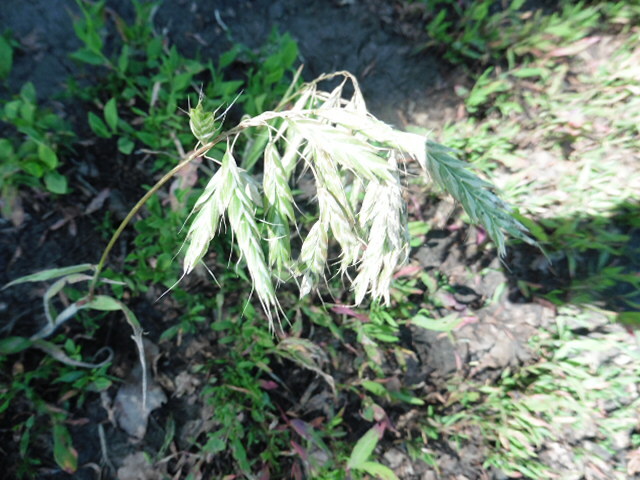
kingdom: Plantae
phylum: Tracheophyta
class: Liliopsida
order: Poales
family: Poaceae
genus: Bromus
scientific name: Bromus squarrosus
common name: Corn brome
